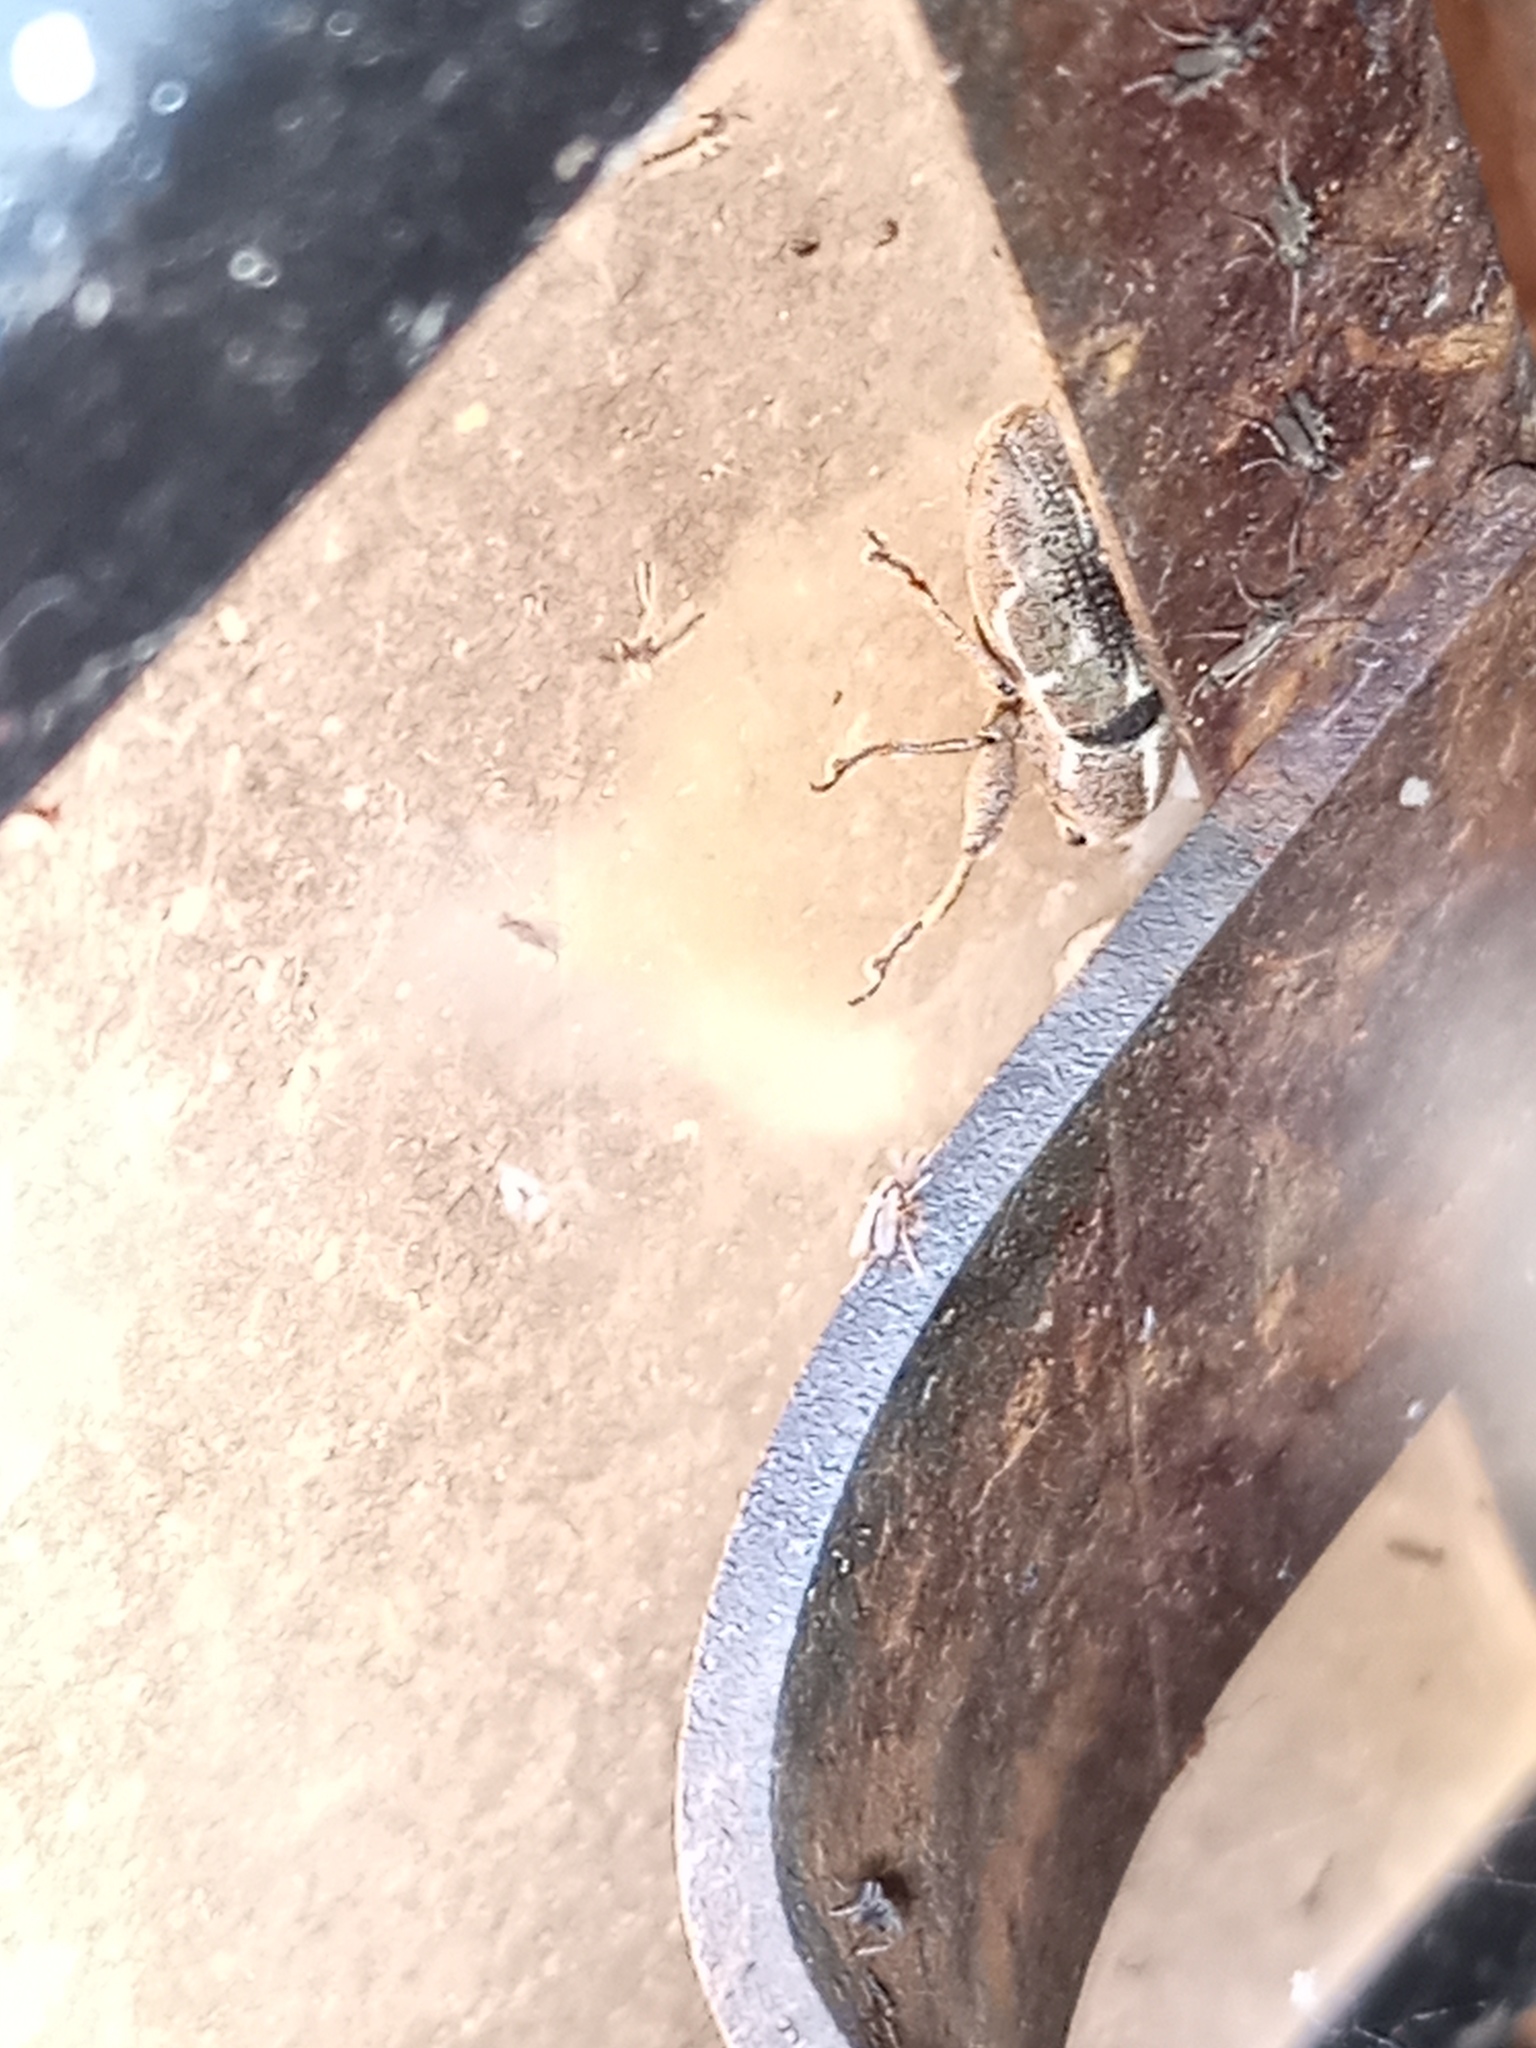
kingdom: Animalia
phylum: Arthropoda
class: Insecta
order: Coleoptera
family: Curculionidae
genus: Naupactus
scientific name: Naupactus dissimulator
